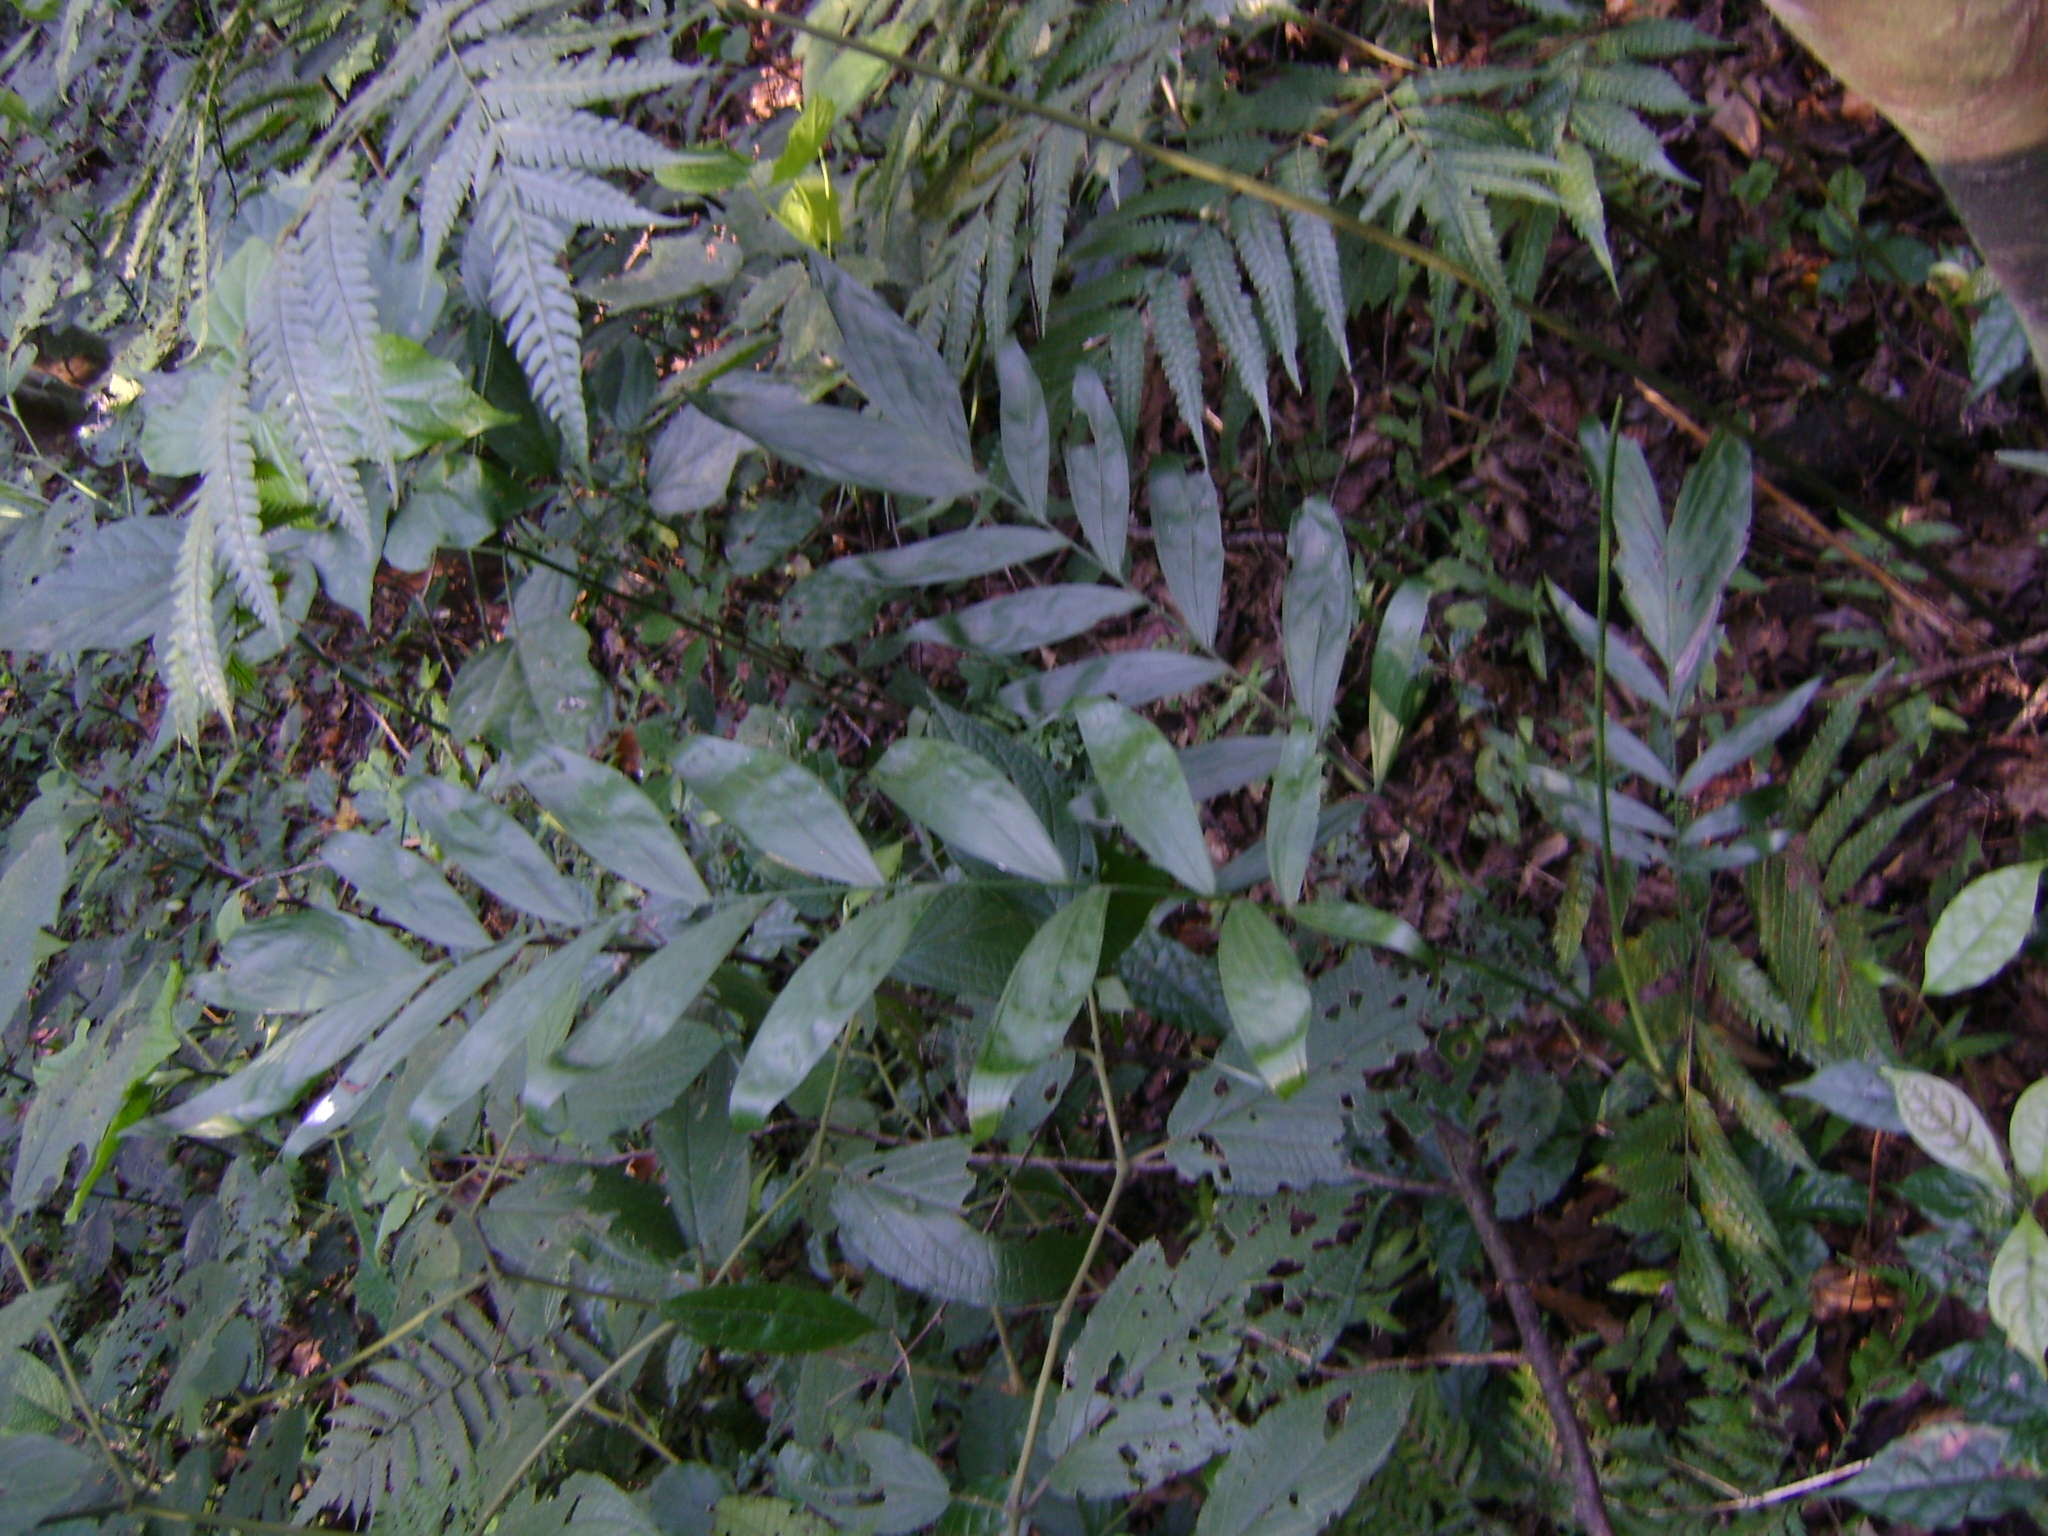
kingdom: Plantae
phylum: Tracheophyta
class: Liliopsida
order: Arecales
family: Arecaceae
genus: Chamaedorea
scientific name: Chamaedorea schiedeana
